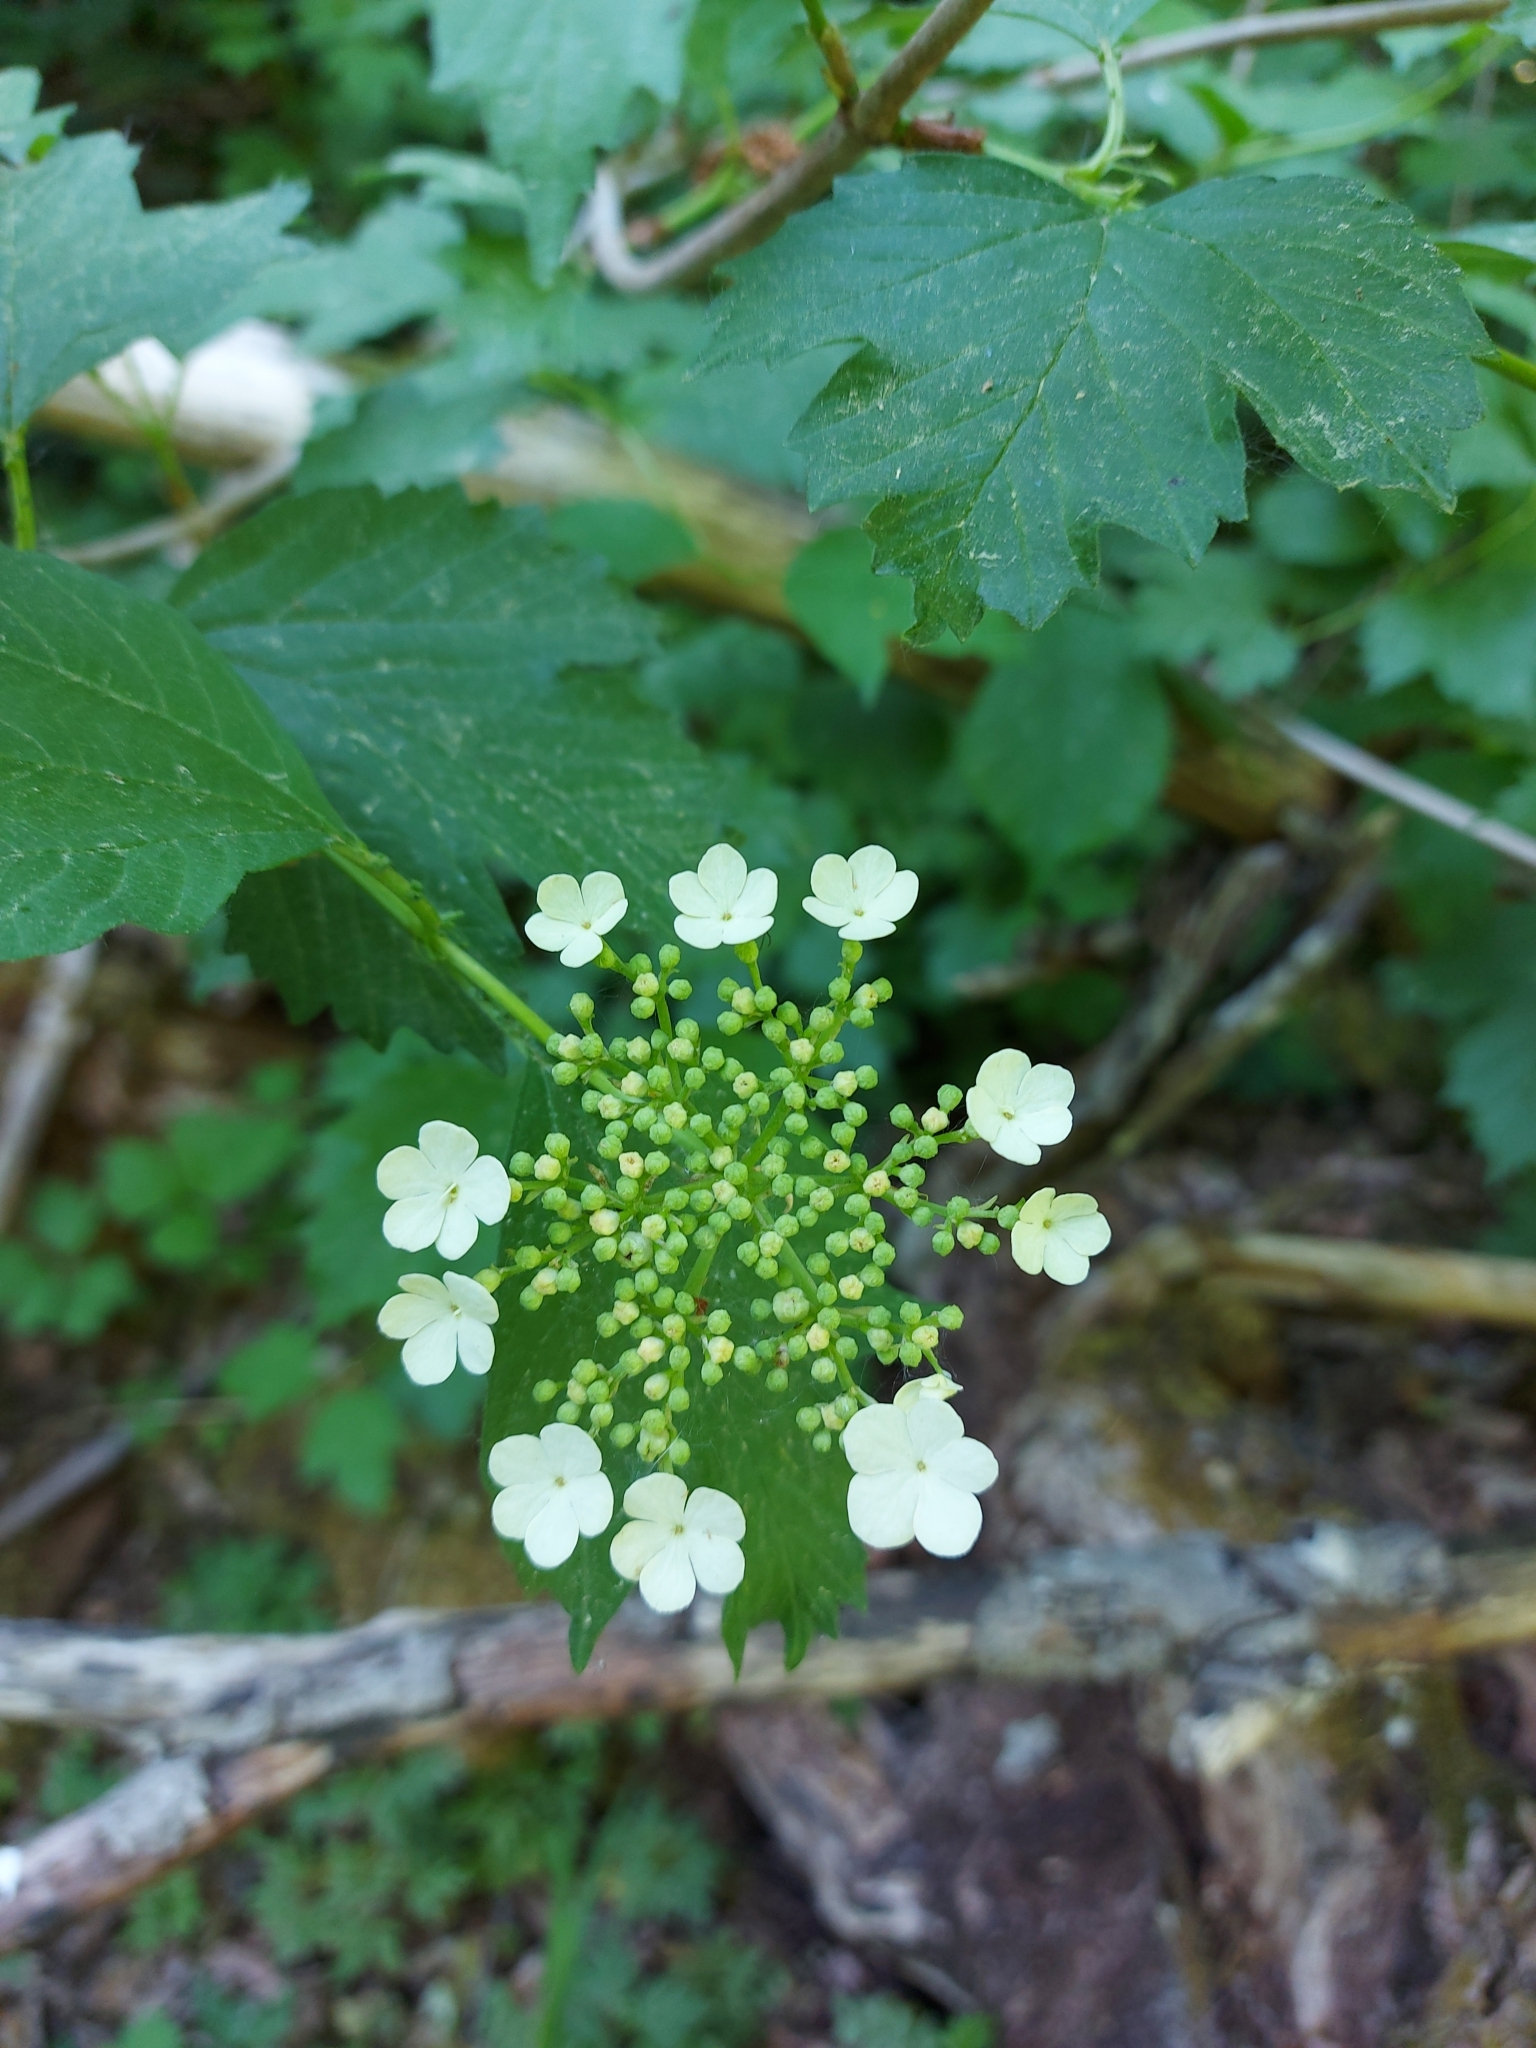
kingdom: Plantae
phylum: Tracheophyta
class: Magnoliopsida
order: Dipsacales
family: Viburnaceae
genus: Viburnum
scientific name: Viburnum opulus
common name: Guelder-rose
